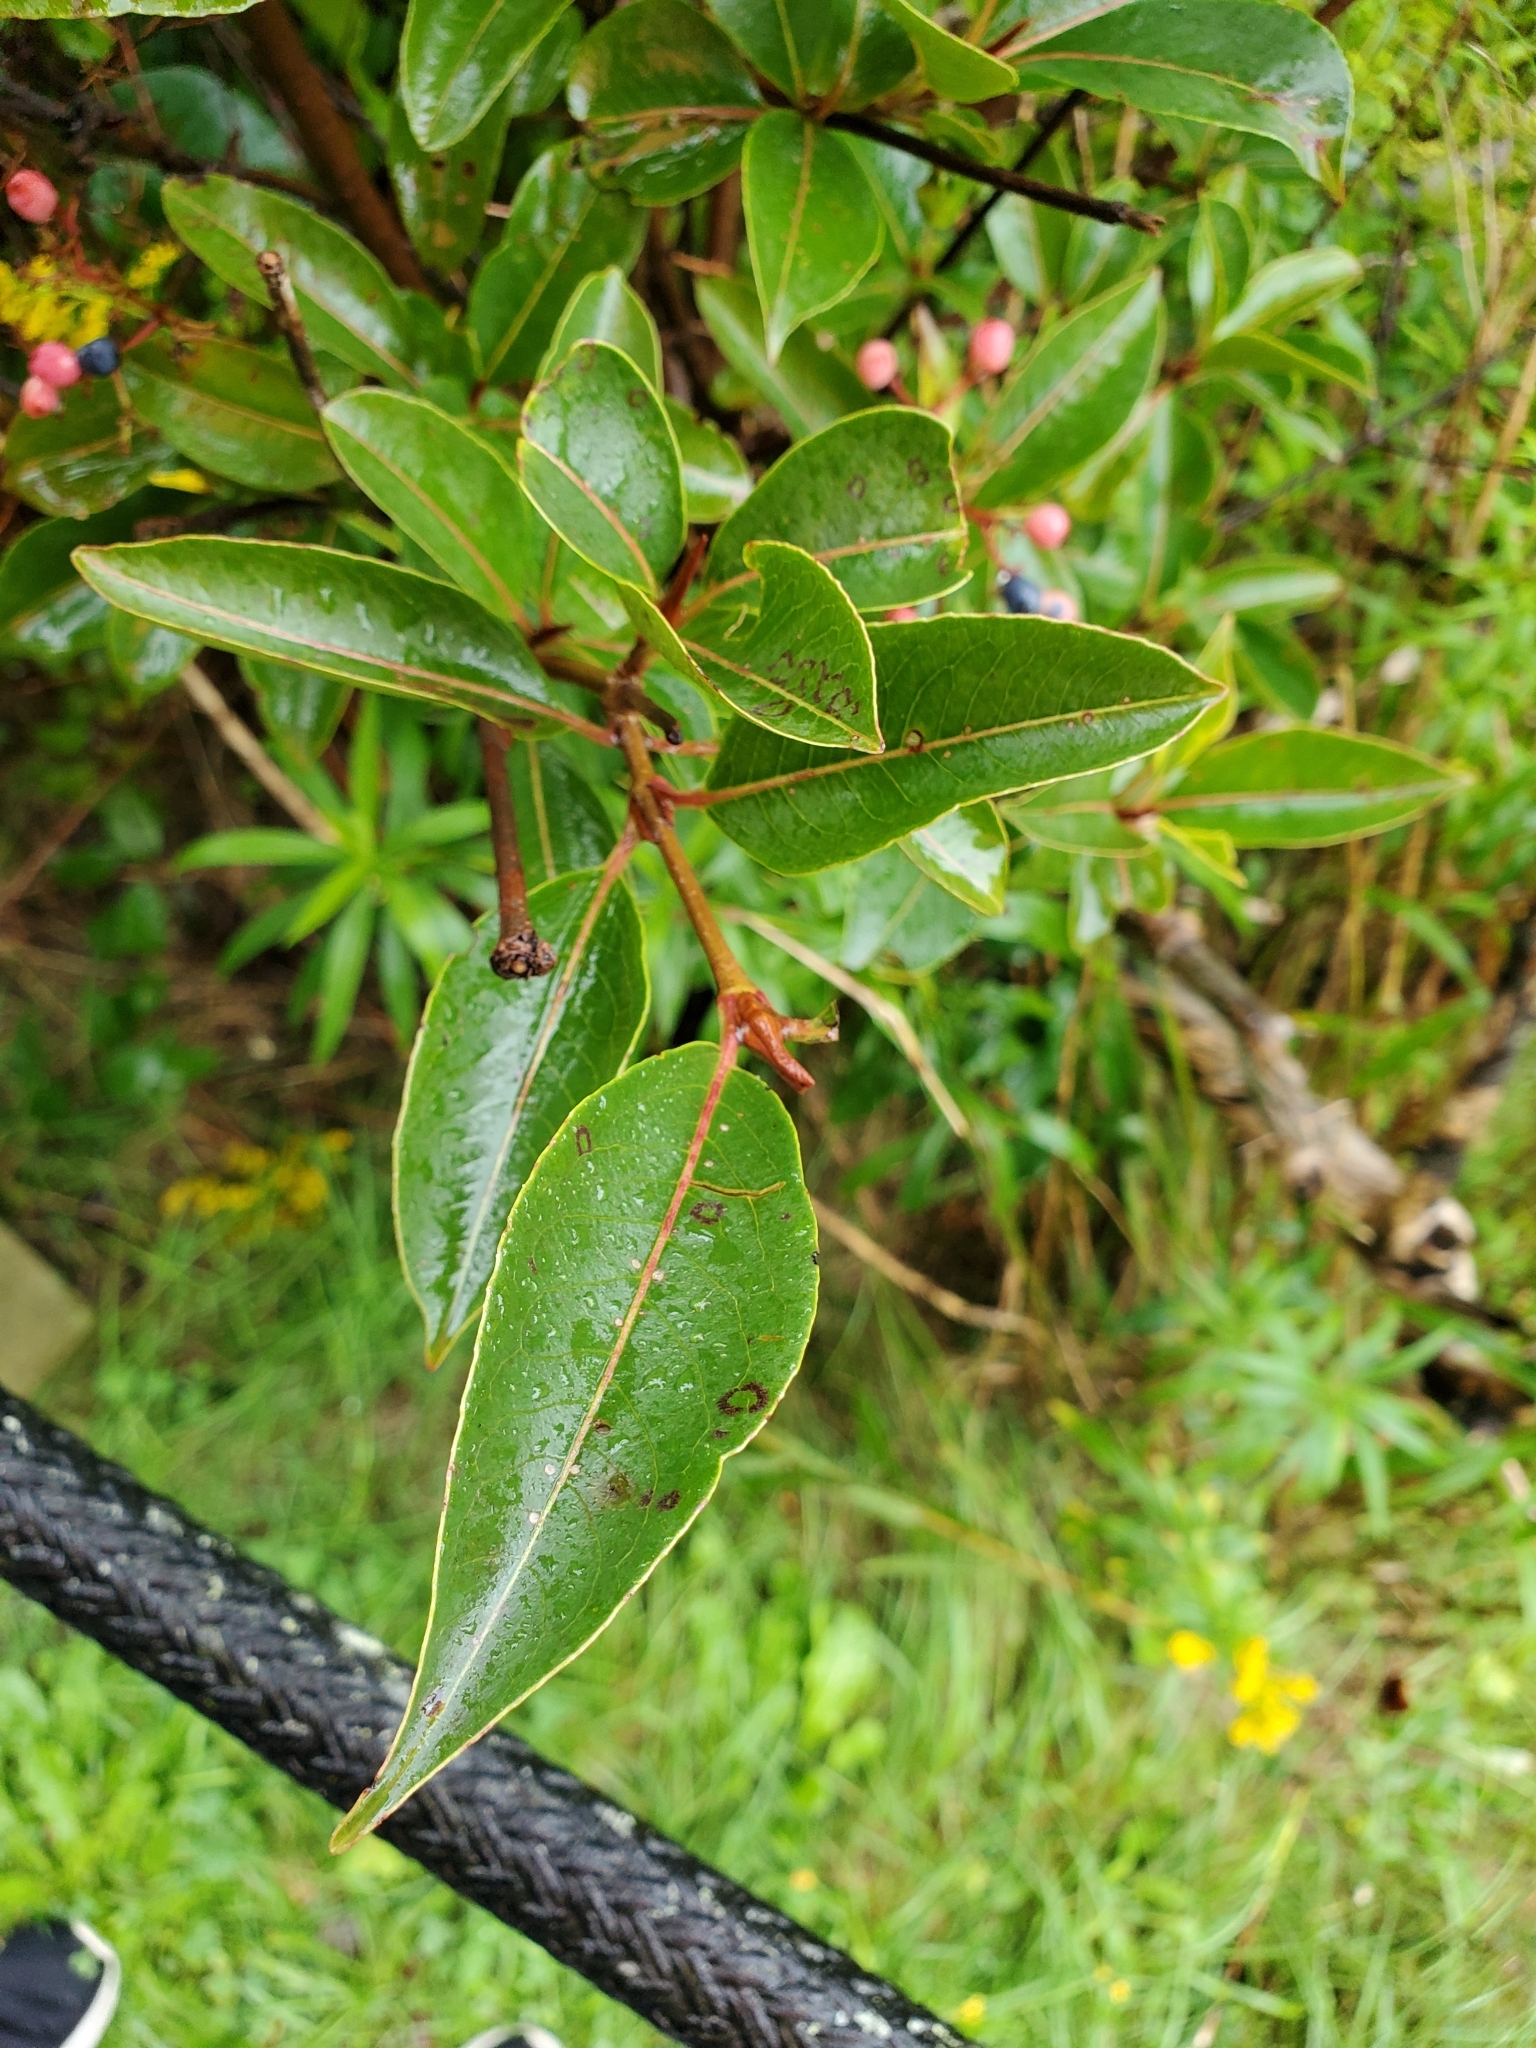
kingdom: Plantae
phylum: Tracheophyta
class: Magnoliopsida
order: Dipsacales
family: Viburnaceae
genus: Viburnum
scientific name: Viburnum cassinoides
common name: Swamp haw
